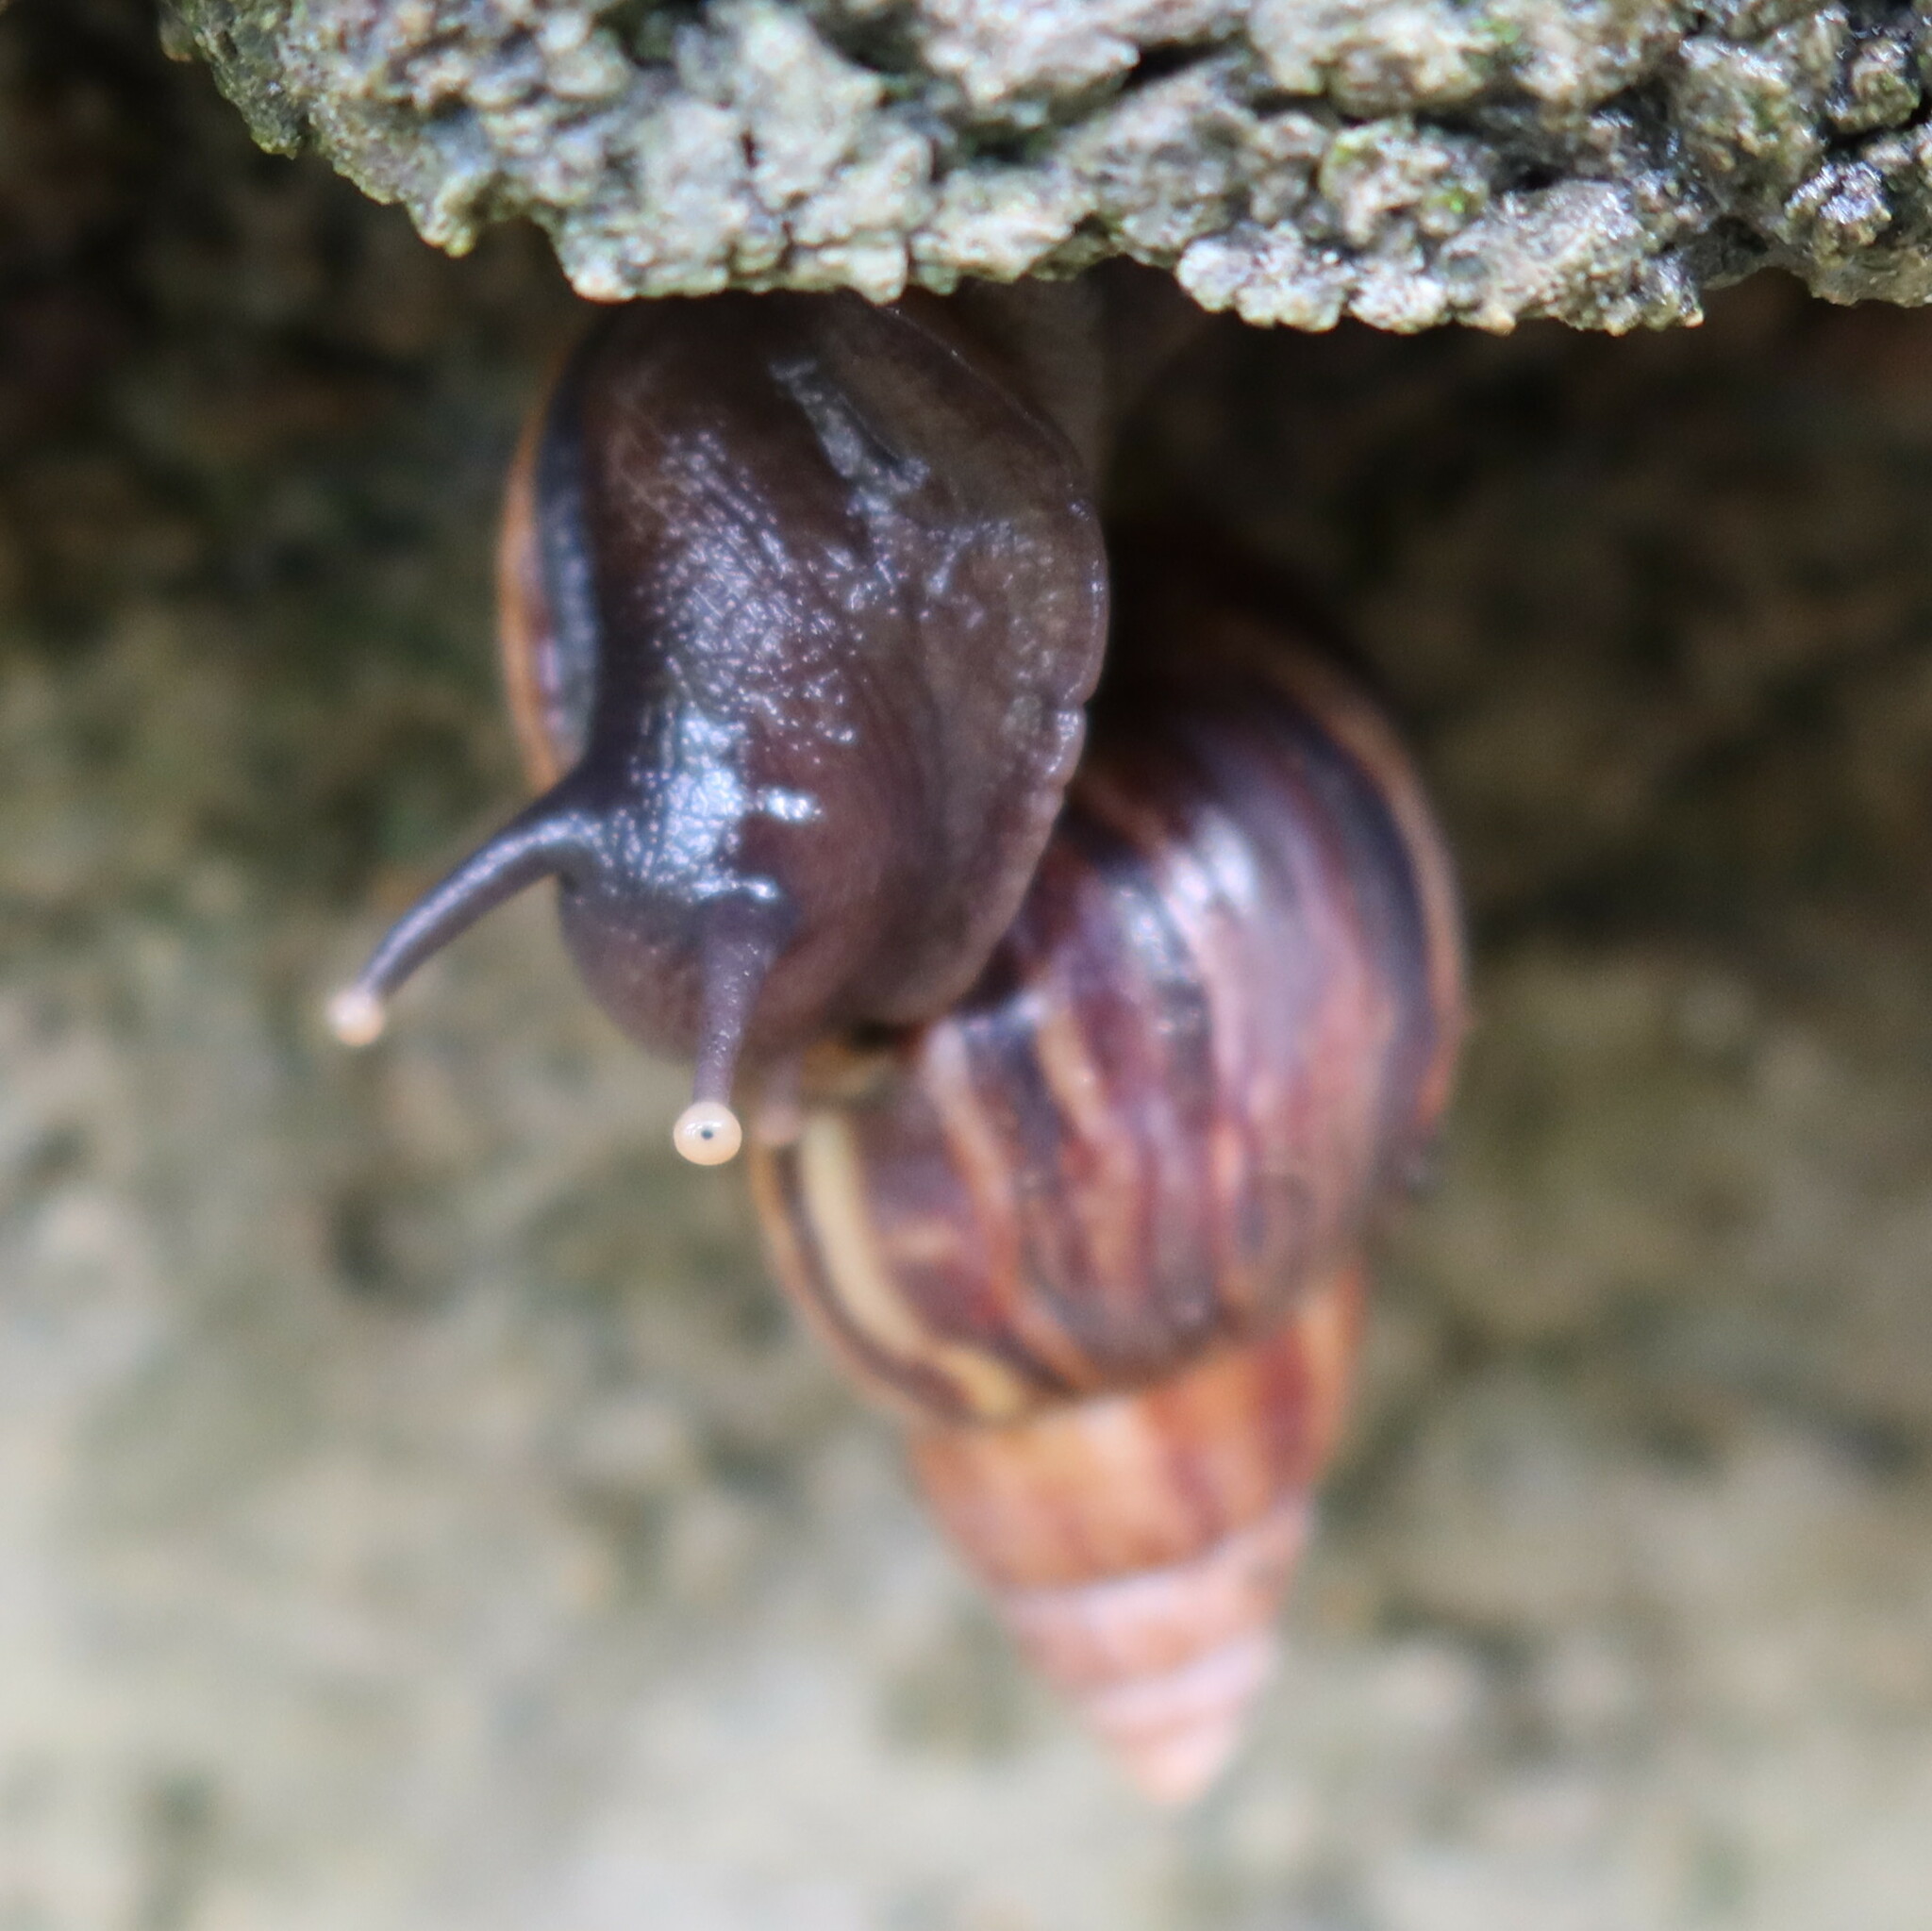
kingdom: Animalia
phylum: Mollusca
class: Gastropoda
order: Stylommatophora
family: Achatinidae
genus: Lissachatina
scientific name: Lissachatina fulica
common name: Giant african snail
